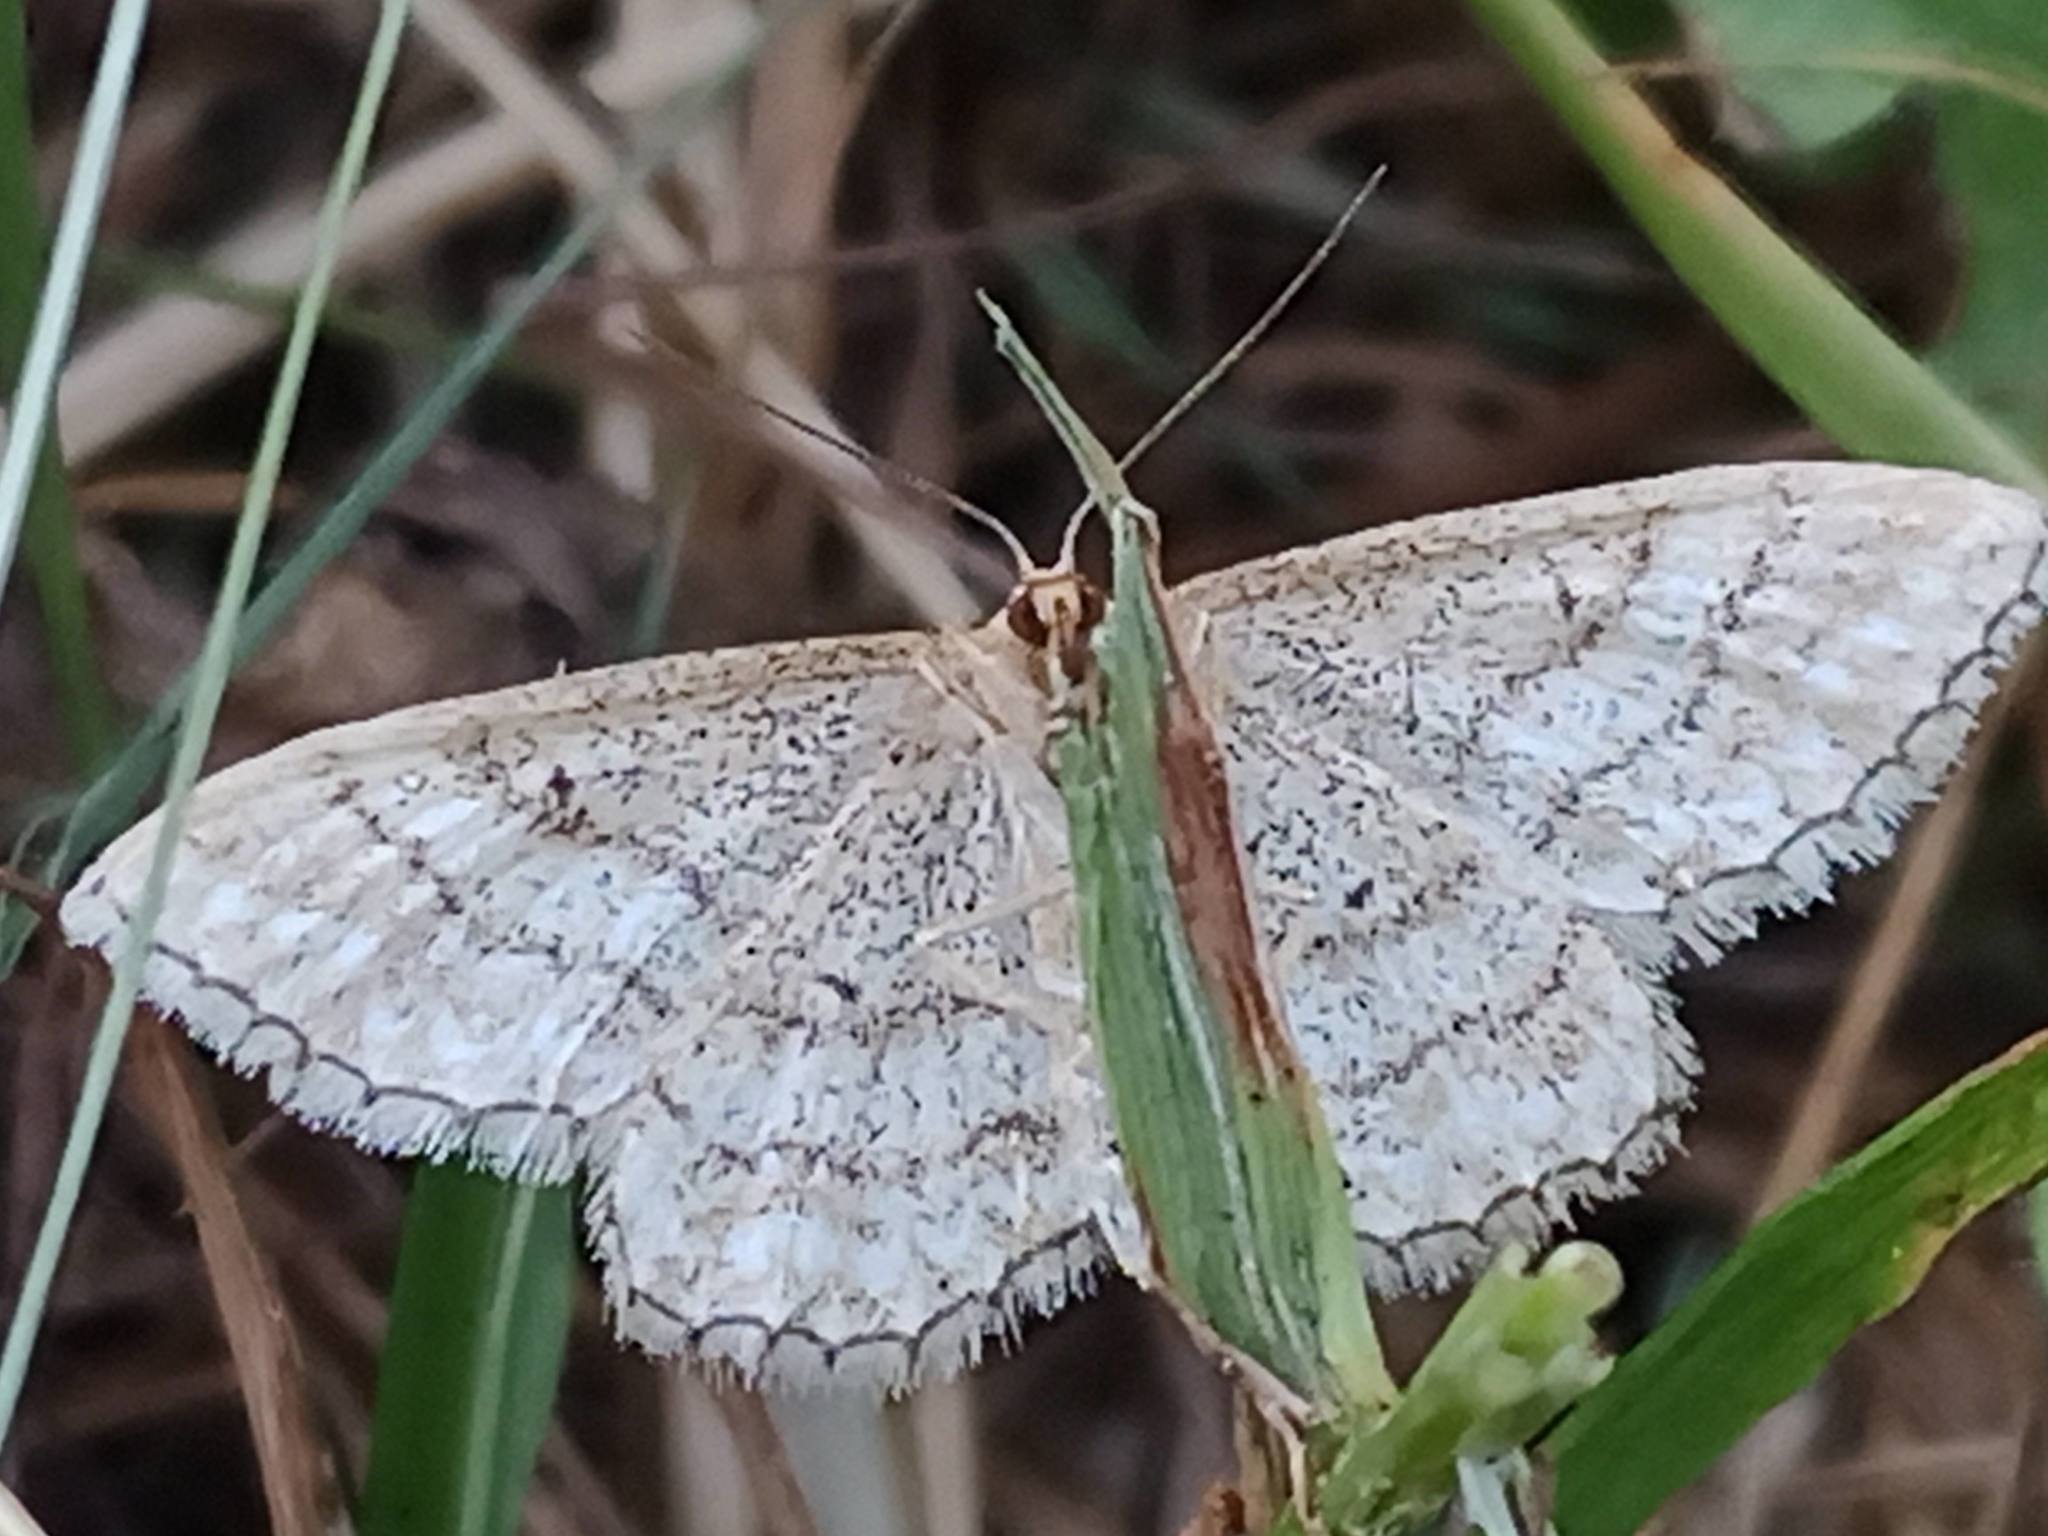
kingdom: Animalia
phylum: Arthropoda
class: Insecta
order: Lepidoptera
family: Geometridae
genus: Idaea
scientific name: Idaea antiquaria
